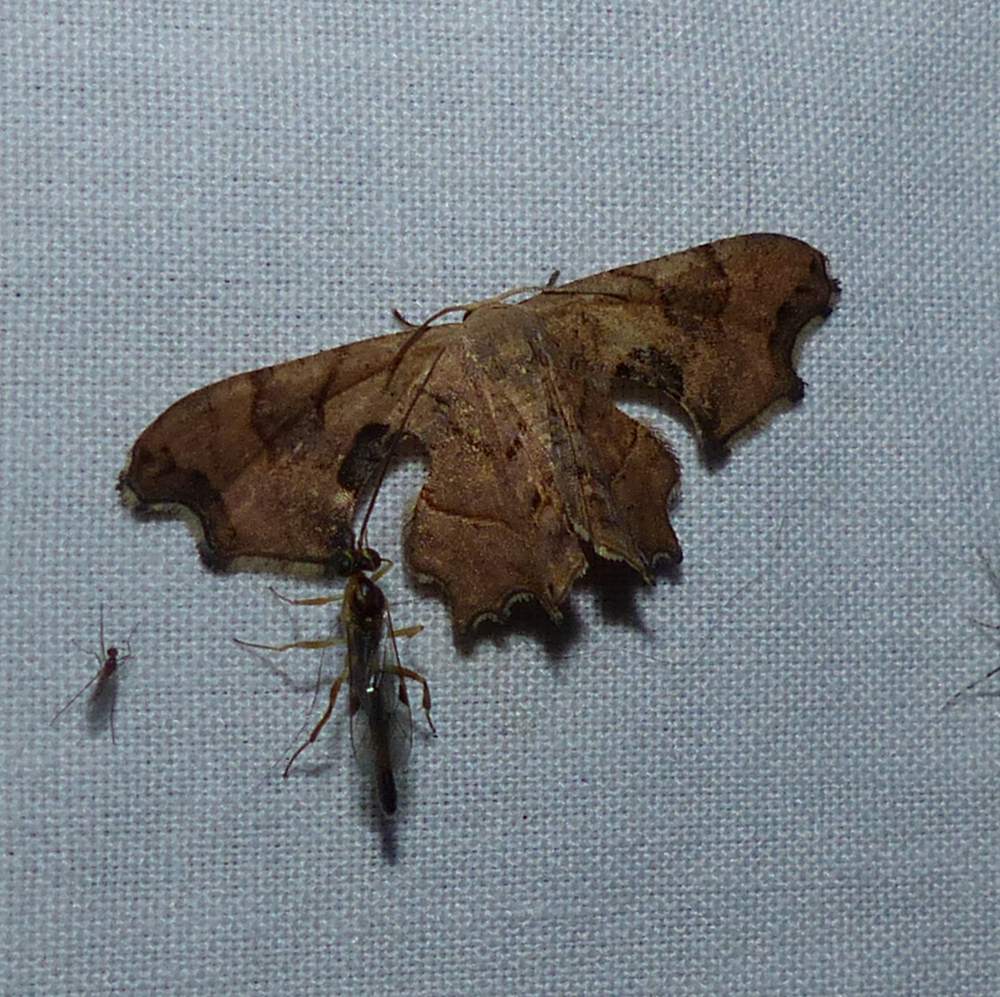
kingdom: Animalia
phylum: Arthropoda
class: Insecta
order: Lepidoptera
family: Uraniidae
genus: Epiplema
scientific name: Epiplema Calledapteryx dryopterata
